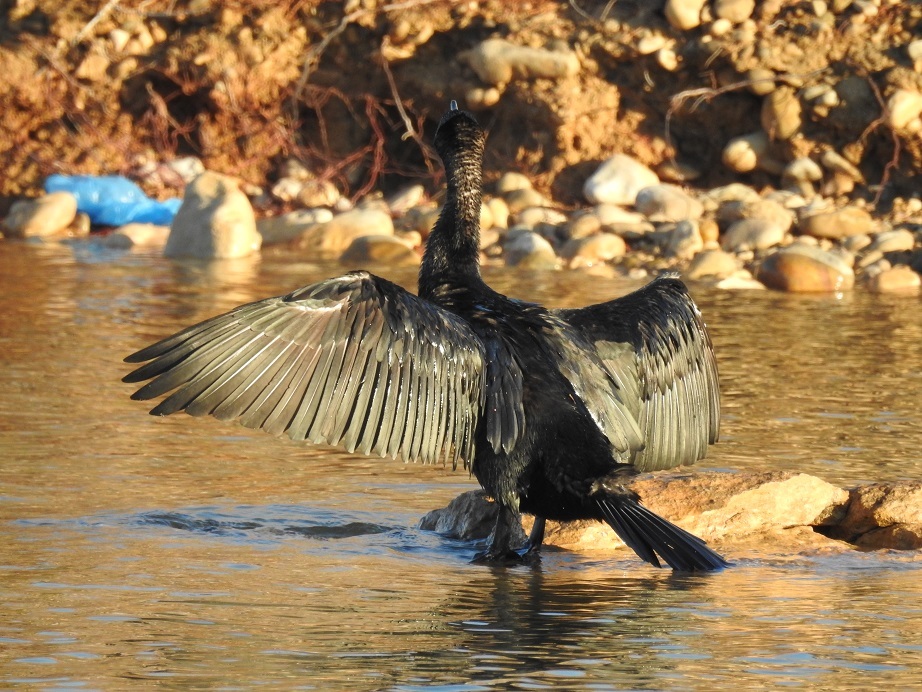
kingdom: Animalia
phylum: Chordata
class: Aves
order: Suliformes
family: Phalacrocoracidae
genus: Phalacrocorax
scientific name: Phalacrocorax carbo
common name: Great cormorant
